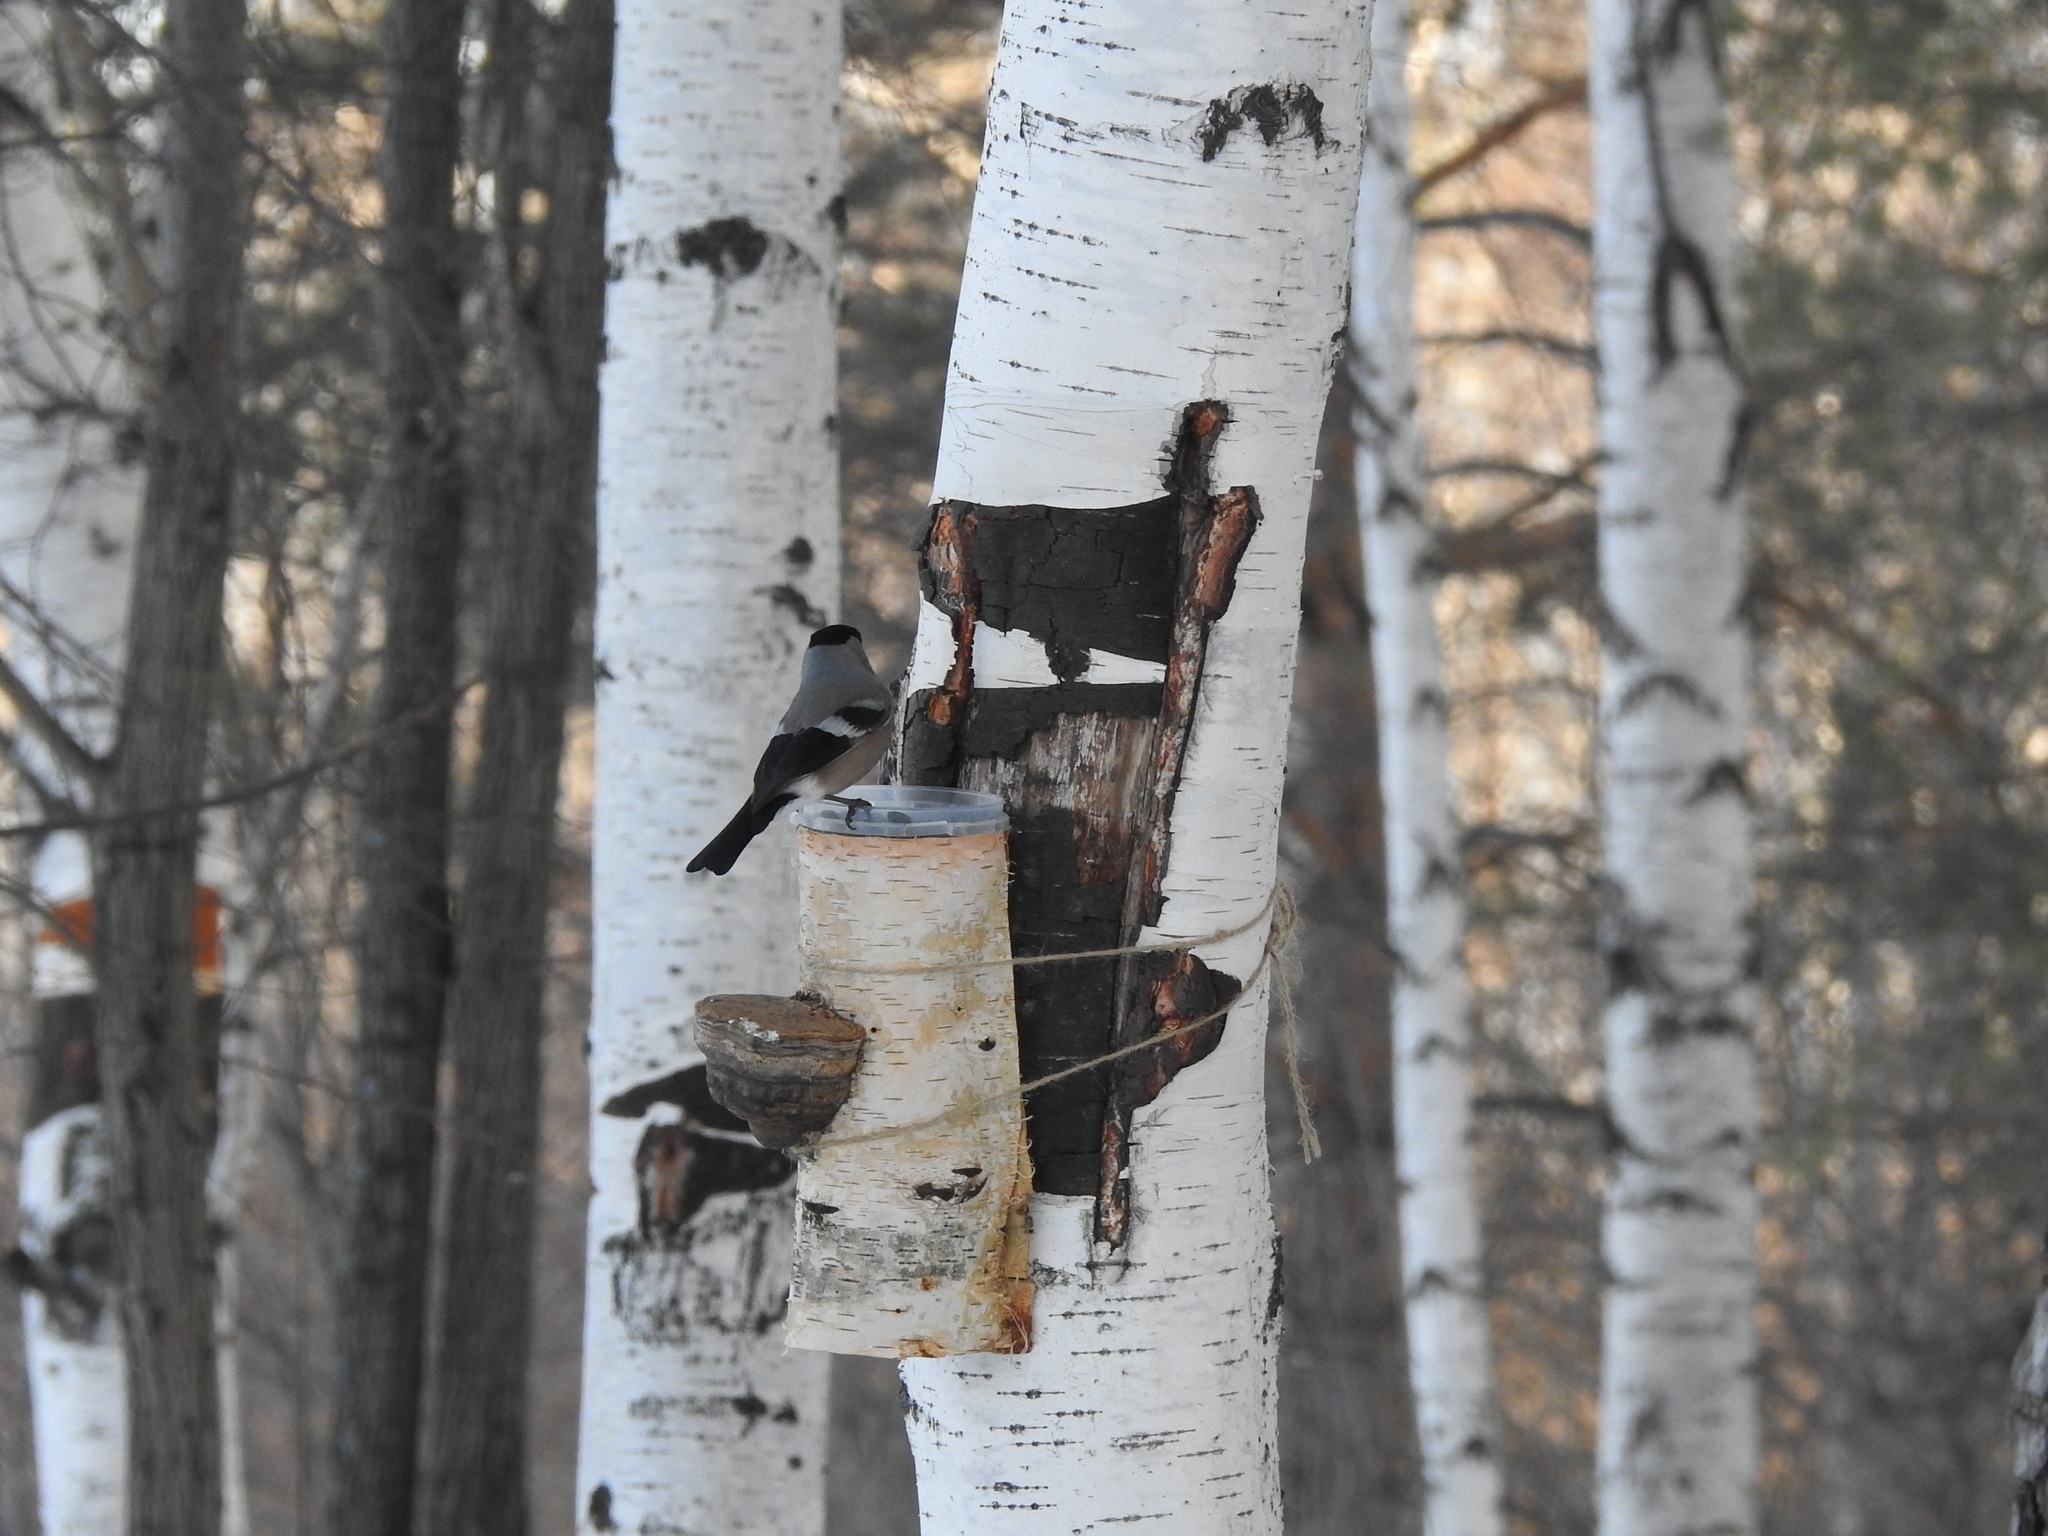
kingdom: Animalia
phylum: Chordata
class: Aves
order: Passeriformes
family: Fringillidae
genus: Pyrrhula
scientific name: Pyrrhula pyrrhula
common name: Eurasian bullfinch
